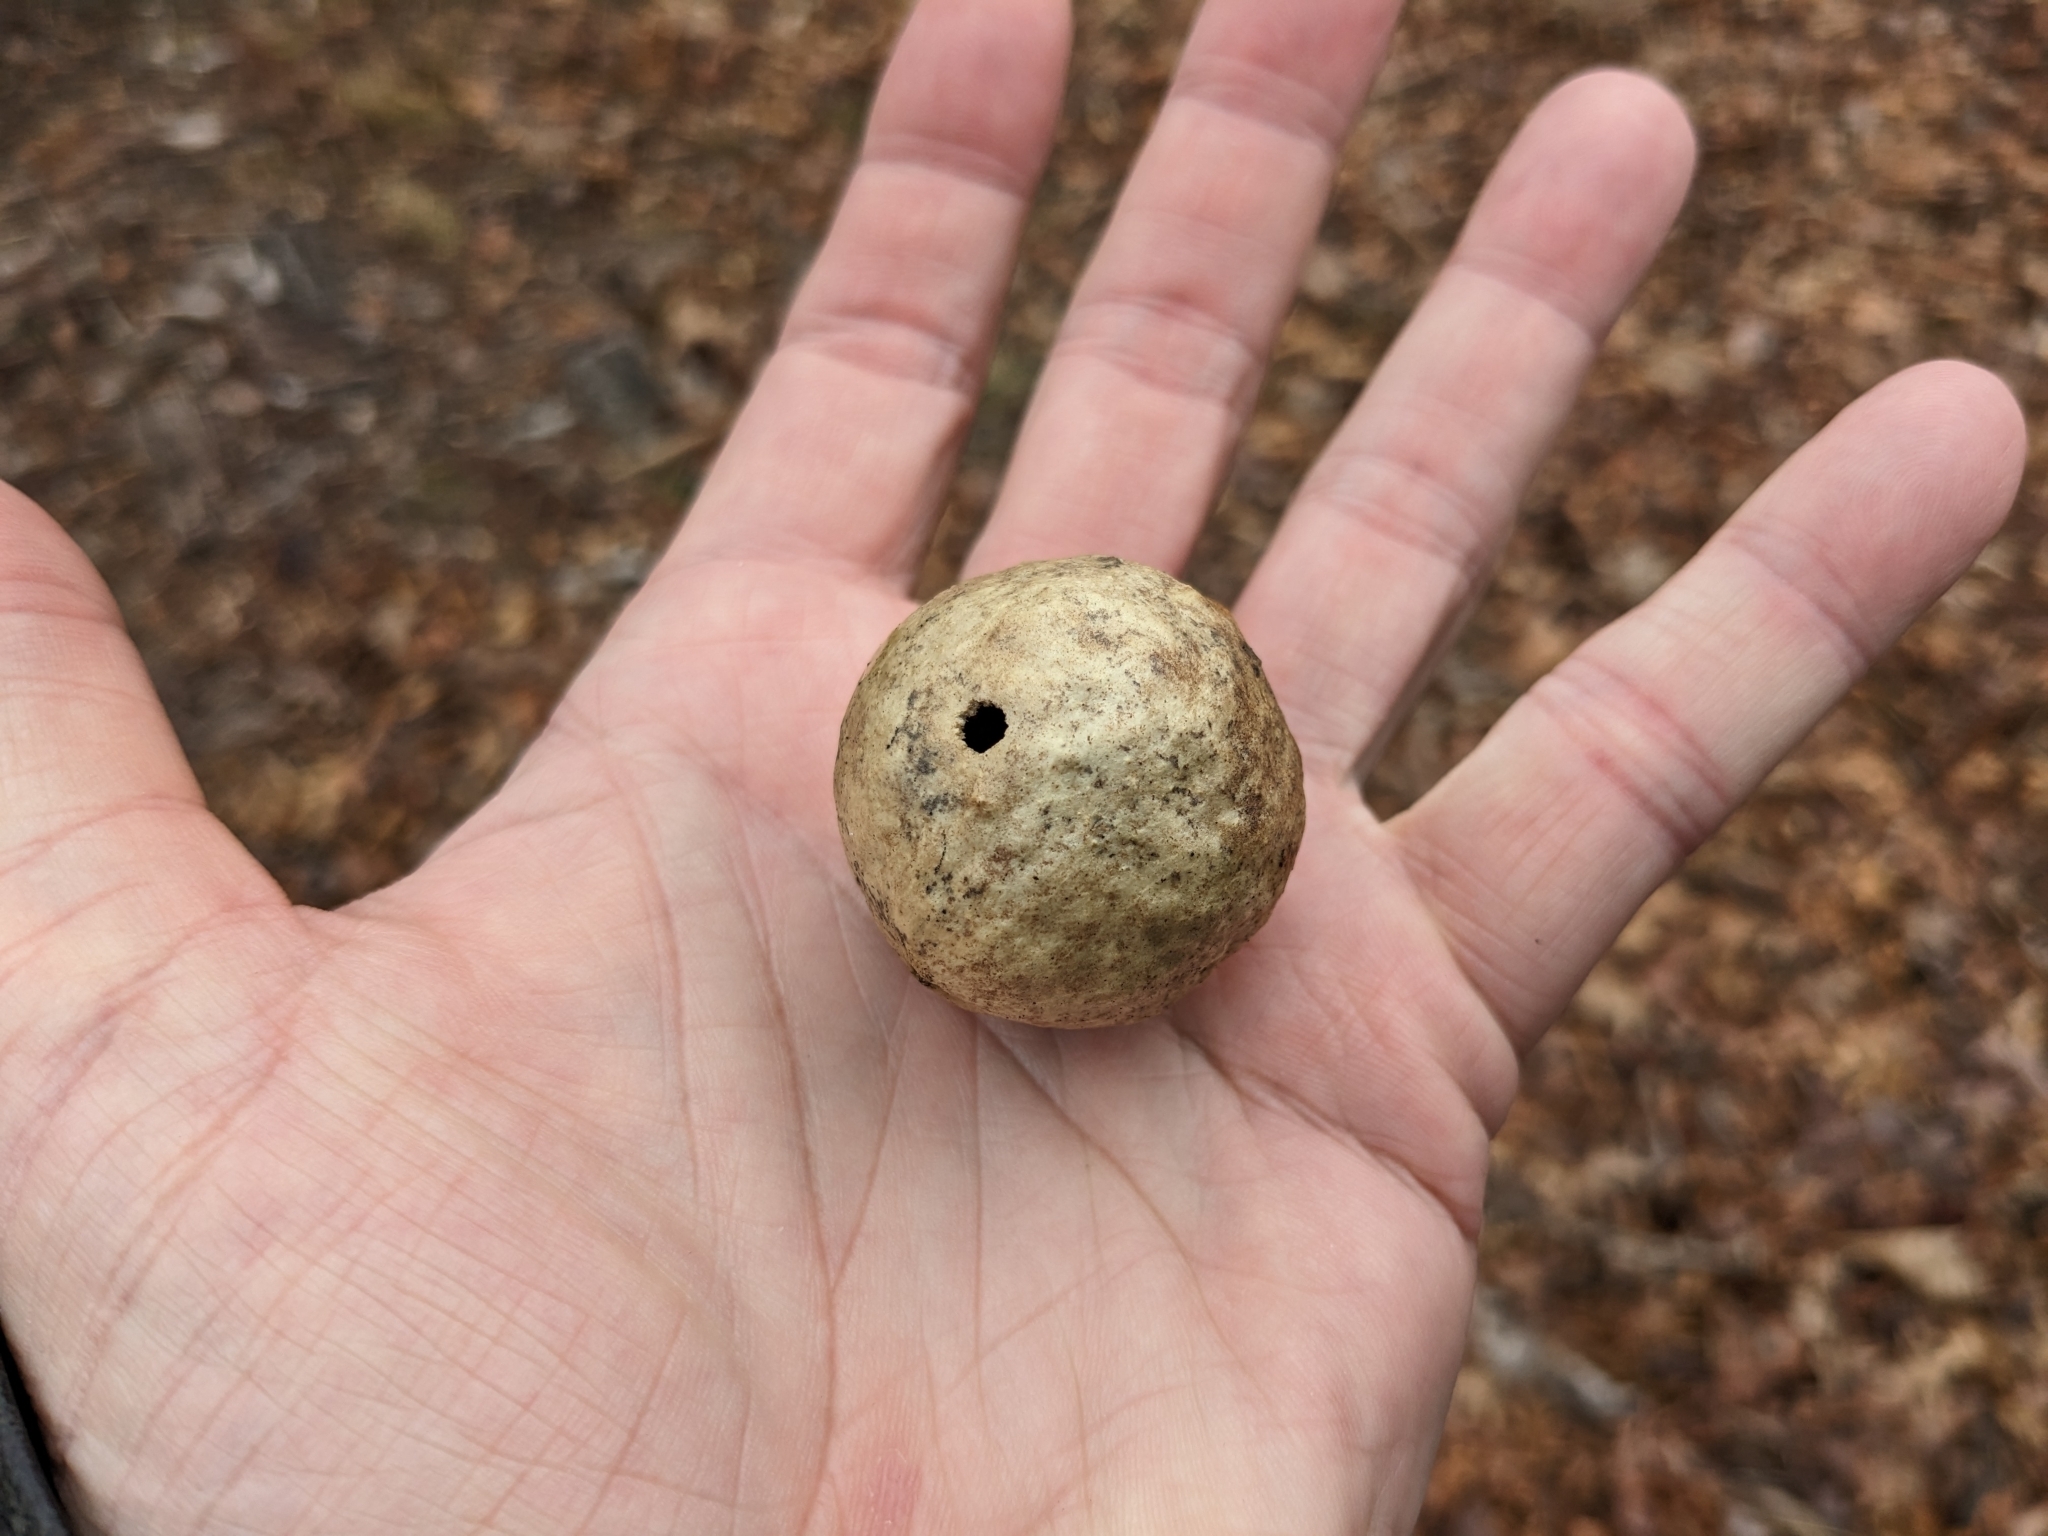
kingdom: Animalia
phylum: Arthropoda
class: Insecta
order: Hymenoptera
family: Cynipidae
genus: Amphibolips
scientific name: Amphibolips
